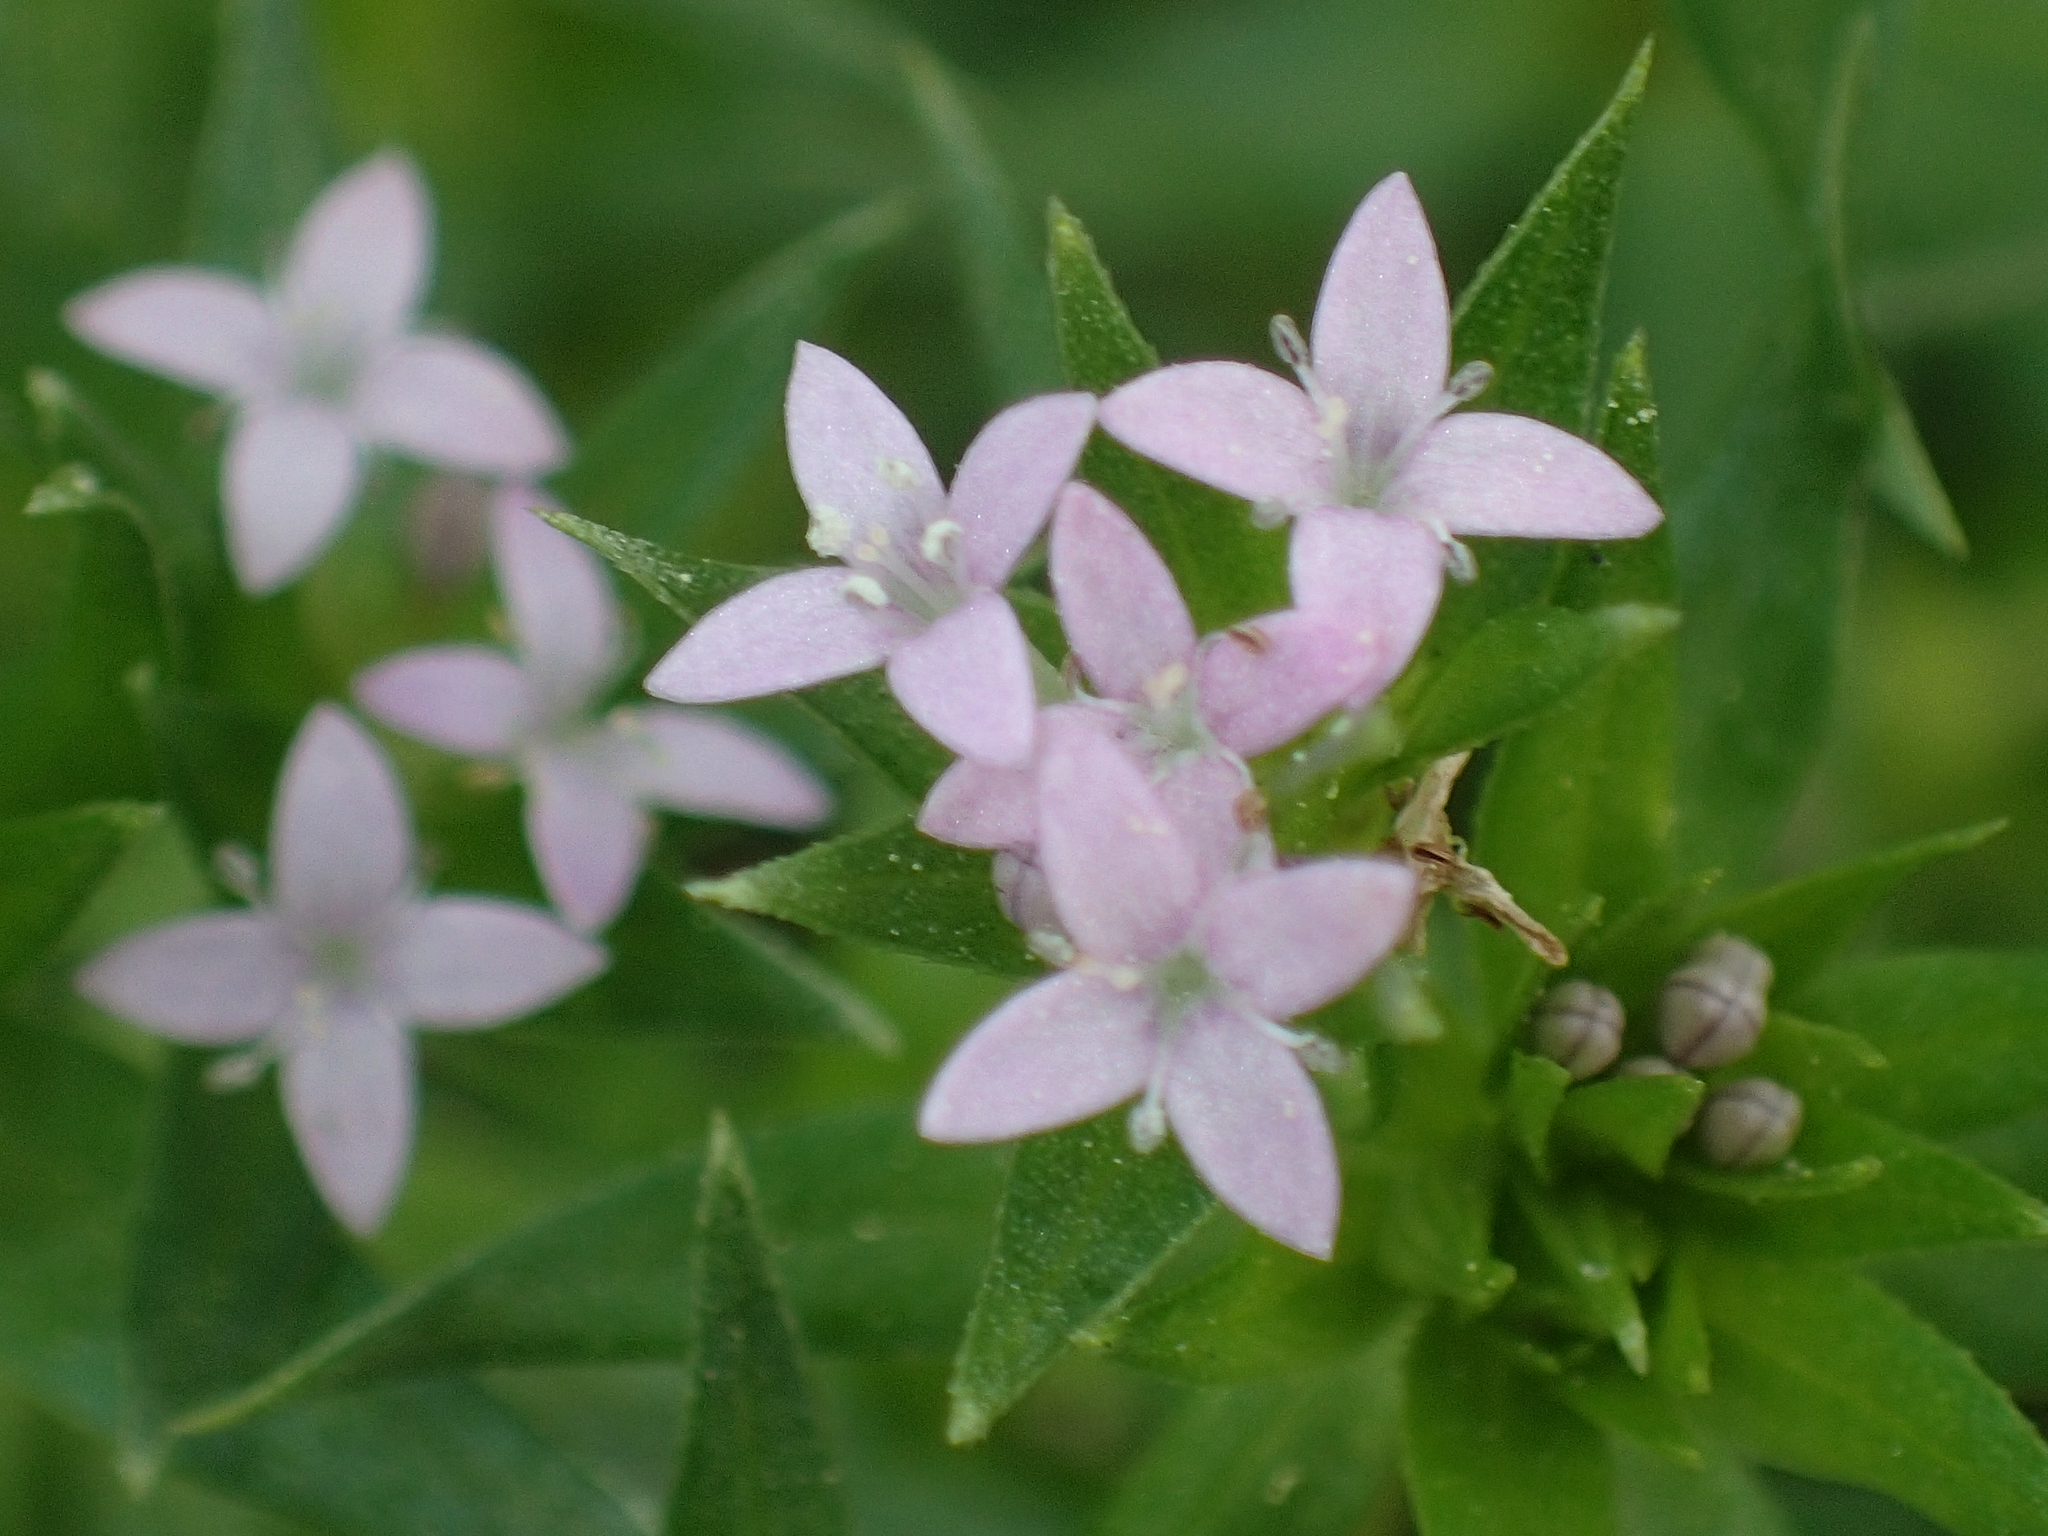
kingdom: Plantae
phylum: Tracheophyta
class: Magnoliopsida
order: Gentianales
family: Rubiaceae
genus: Sherardia
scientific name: Sherardia arvensis
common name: Field madder
